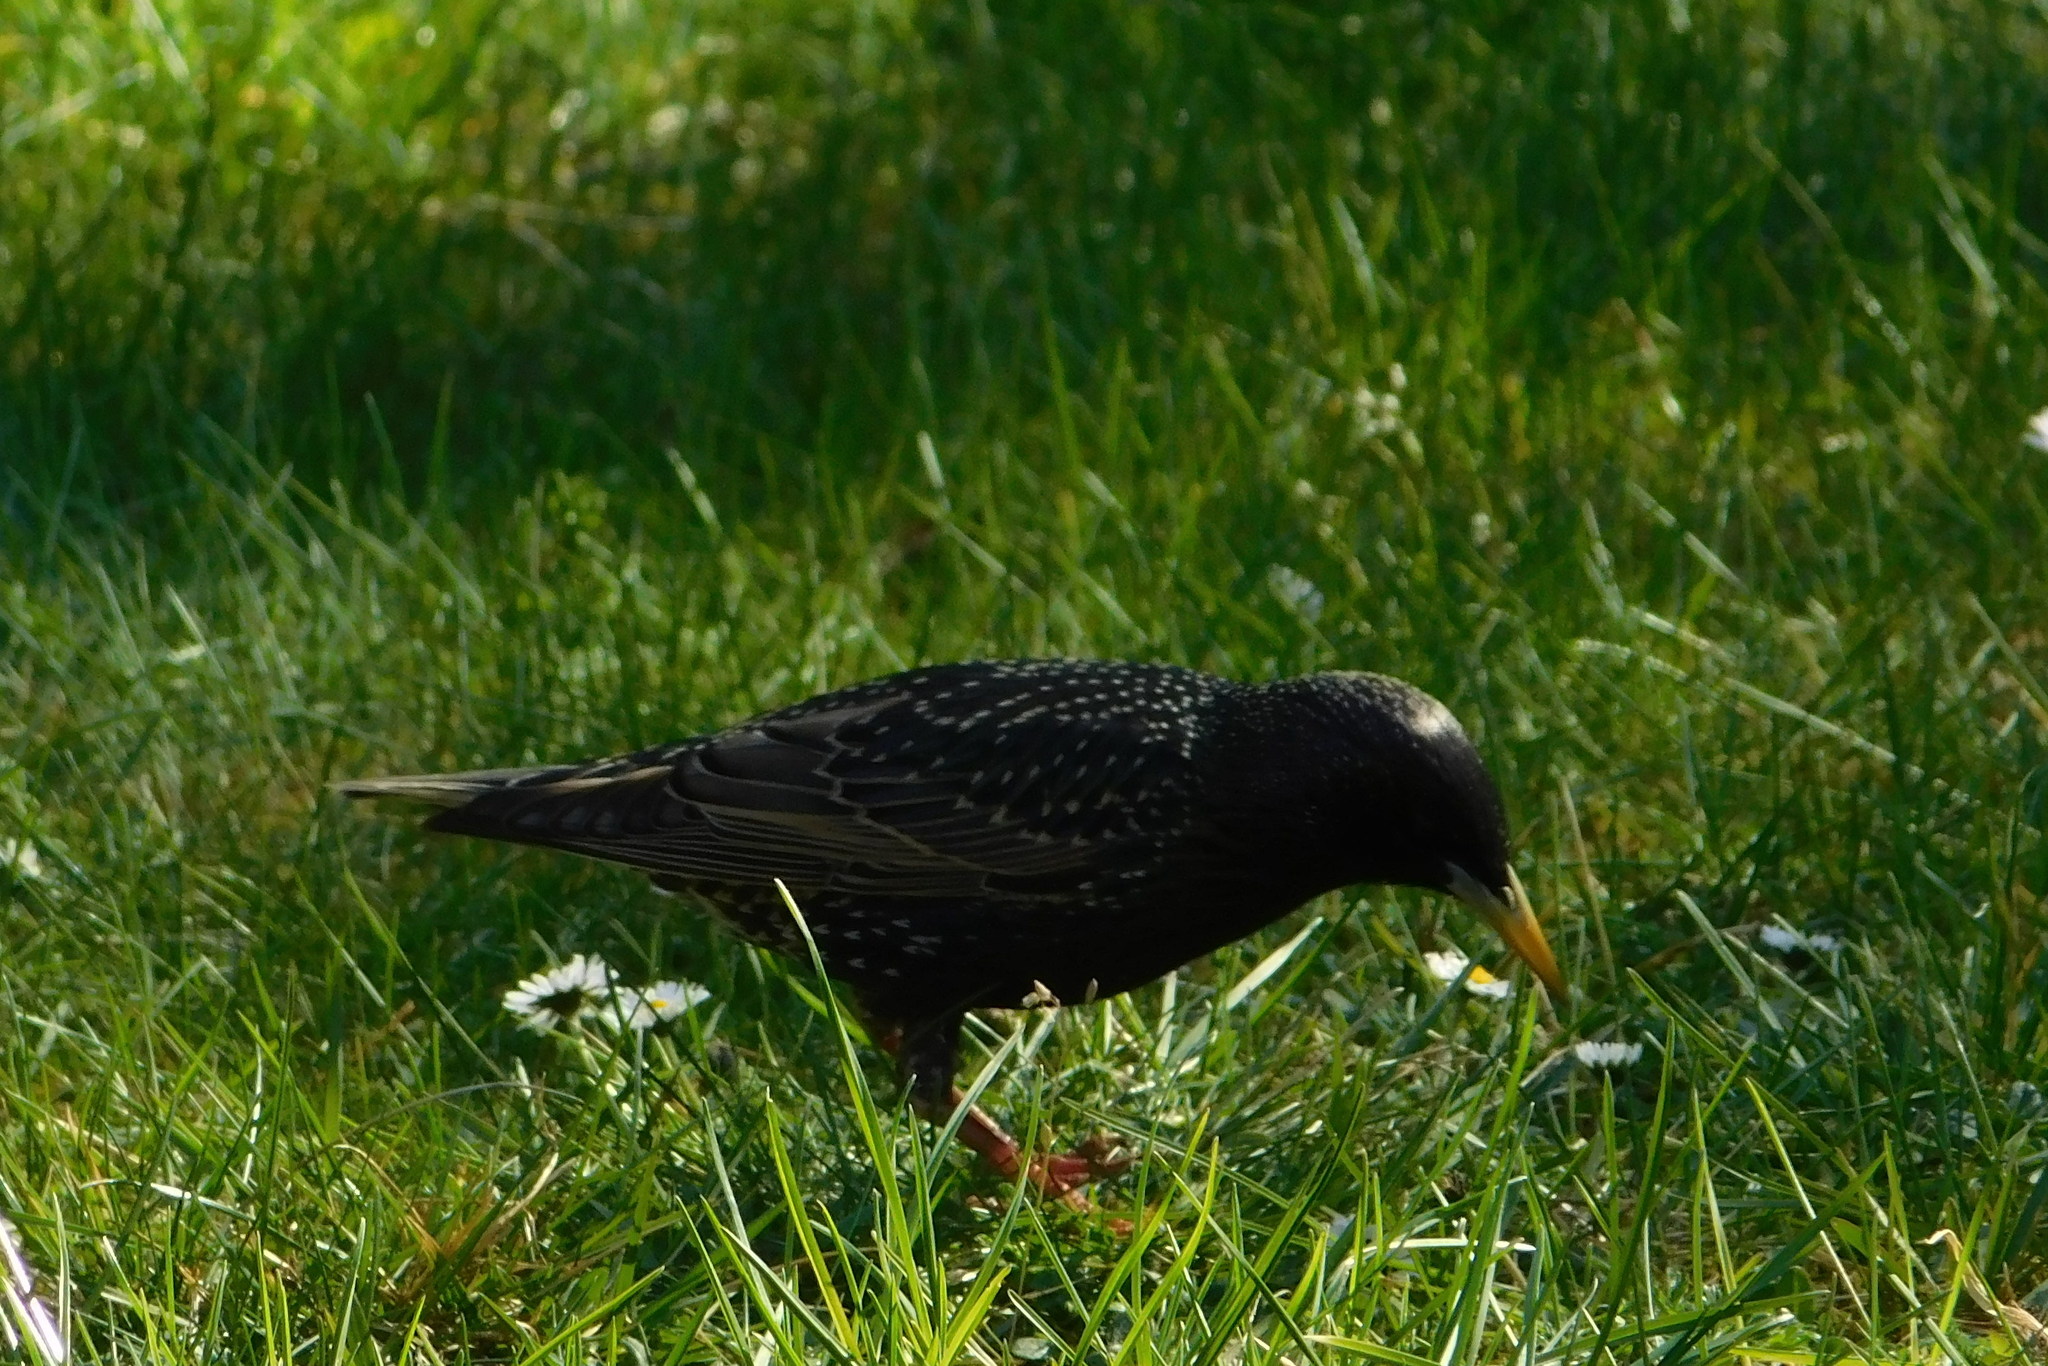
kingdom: Animalia
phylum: Chordata
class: Aves
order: Passeriformes
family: Sturnidae
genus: Sturnus
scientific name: Sturnus vulgaris
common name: Common starling
